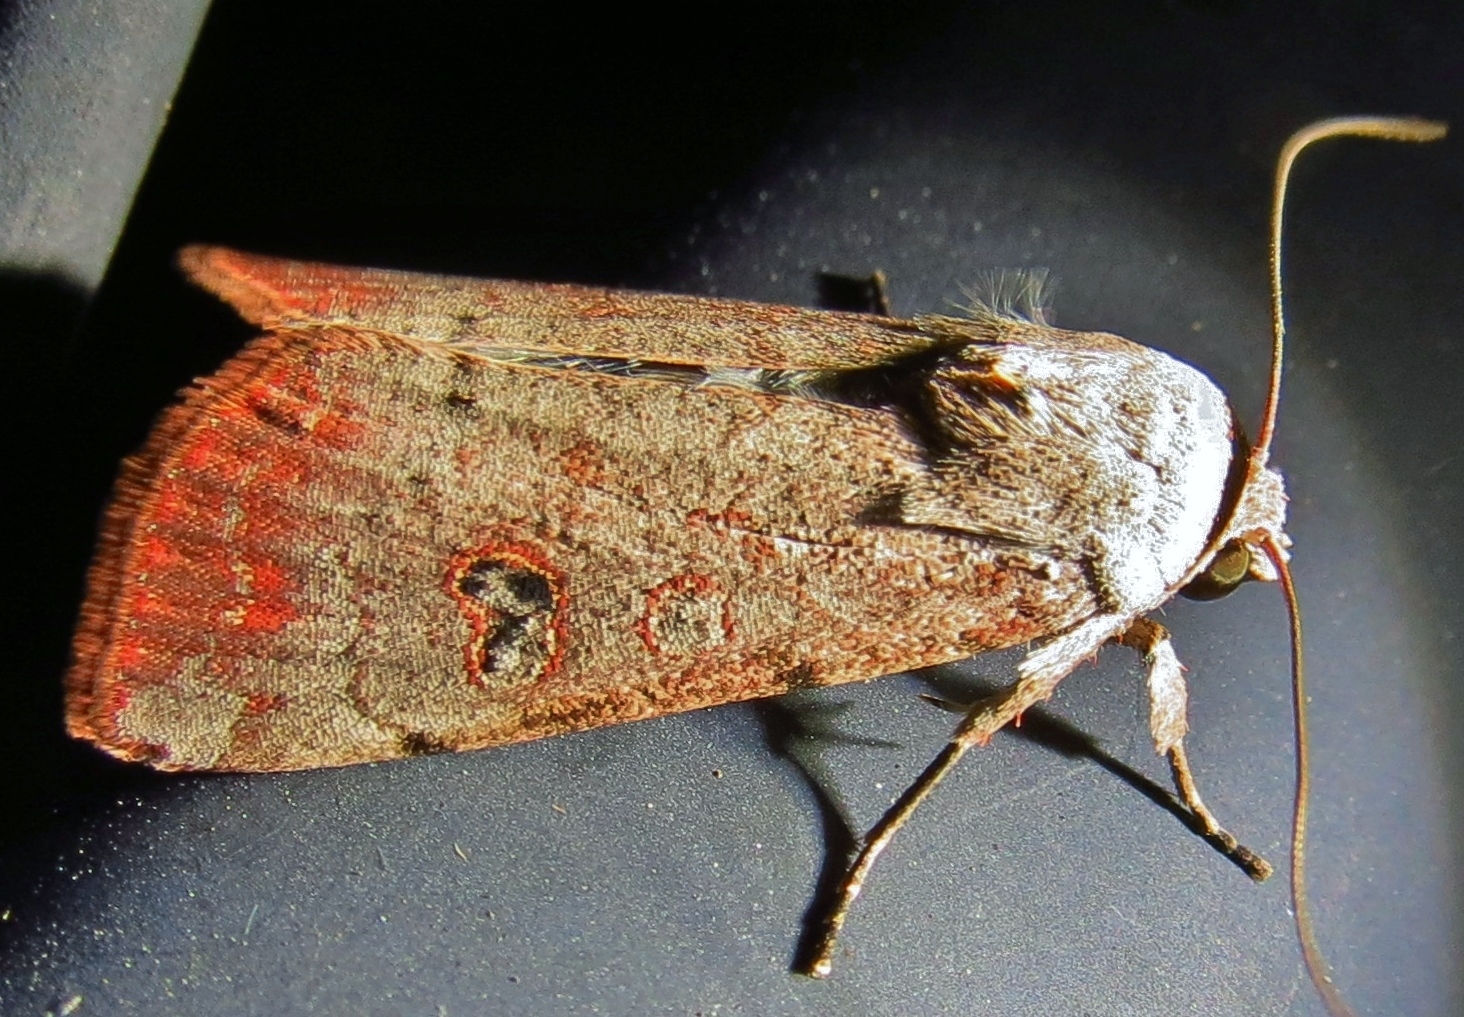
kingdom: Animalia
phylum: Arthropoda
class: Insecta
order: Lepidoptera
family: Noctuidae
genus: Anicla
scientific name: Anicla infecta
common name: Green cutworm
